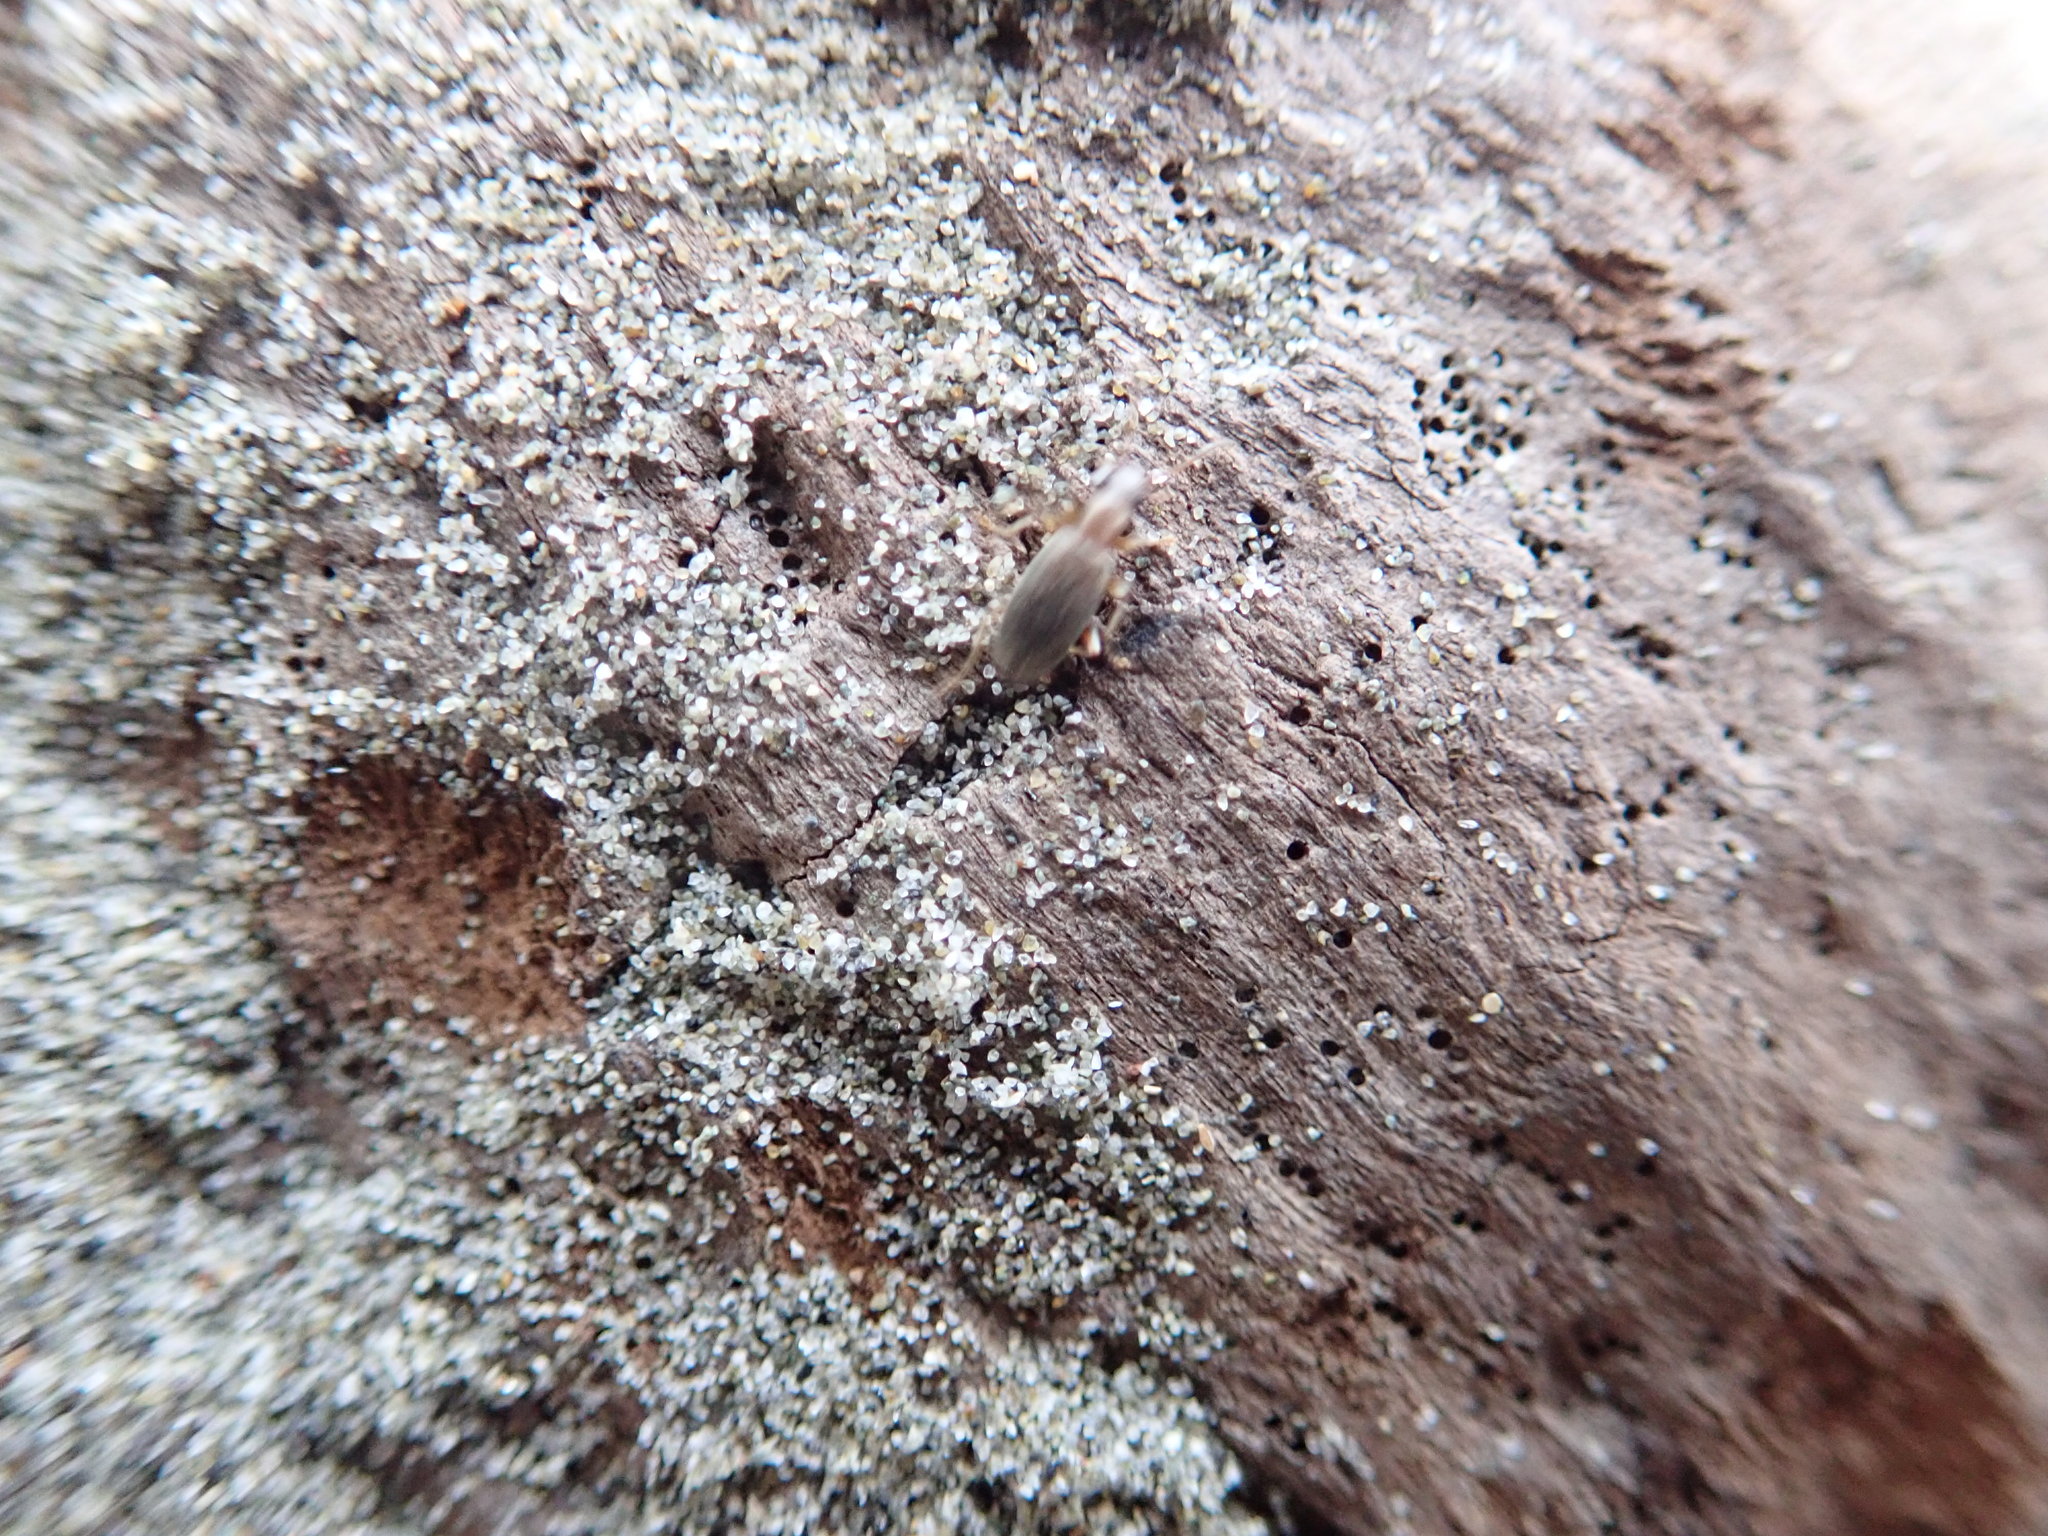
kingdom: Animalia
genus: Lagrioda
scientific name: Lagrioda brounii
